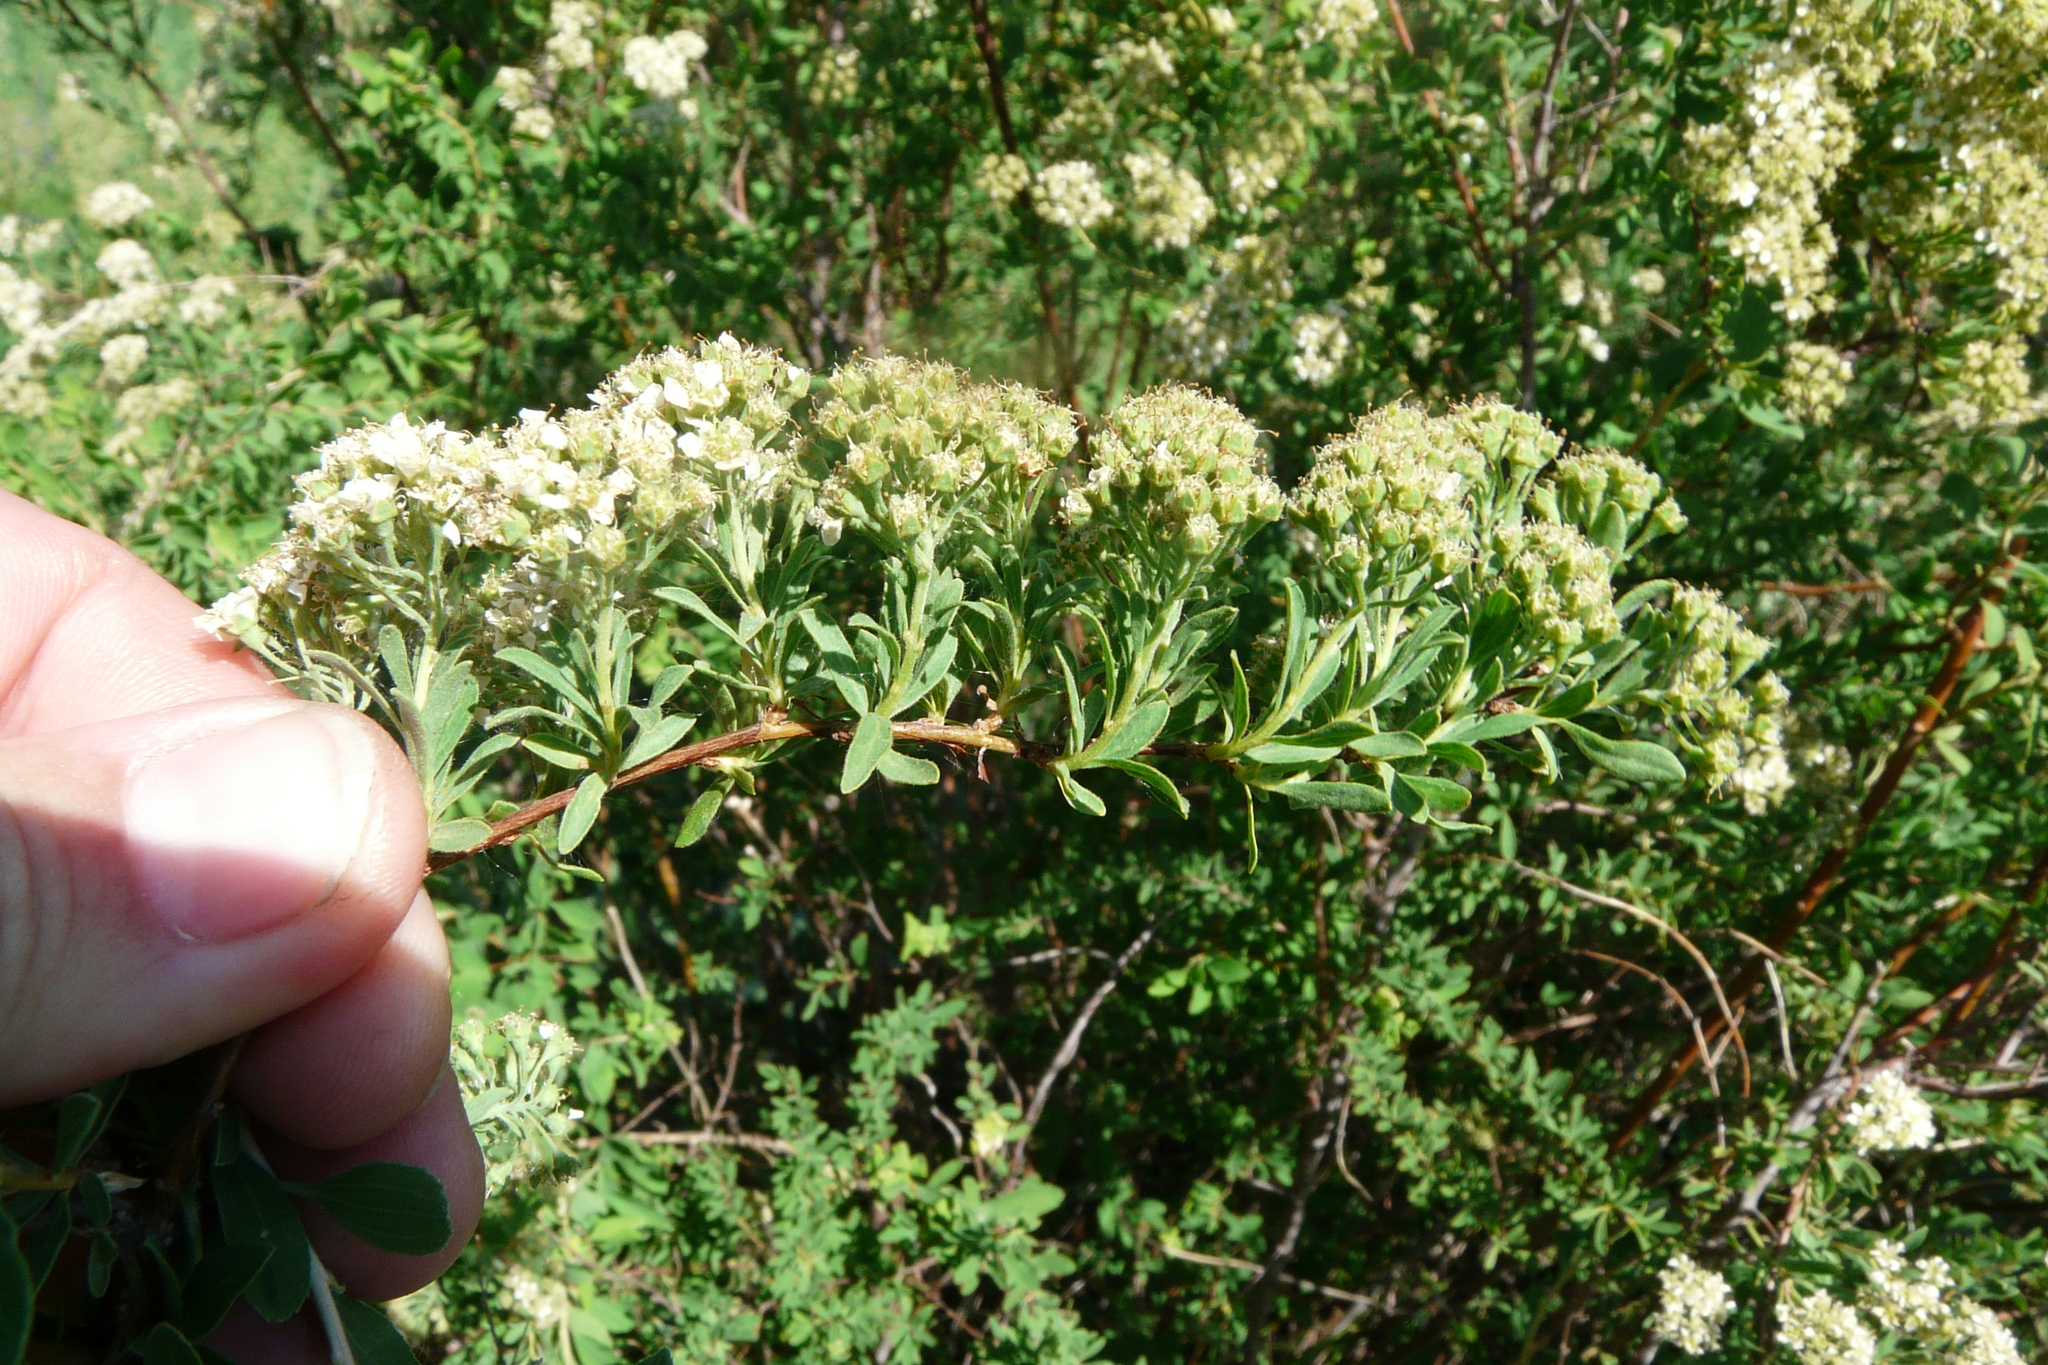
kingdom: Plantae
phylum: Tracheophyta
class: Magnoliopsida
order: Rosales
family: Rosaceae
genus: Spiraea
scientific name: Spiraea crenata
